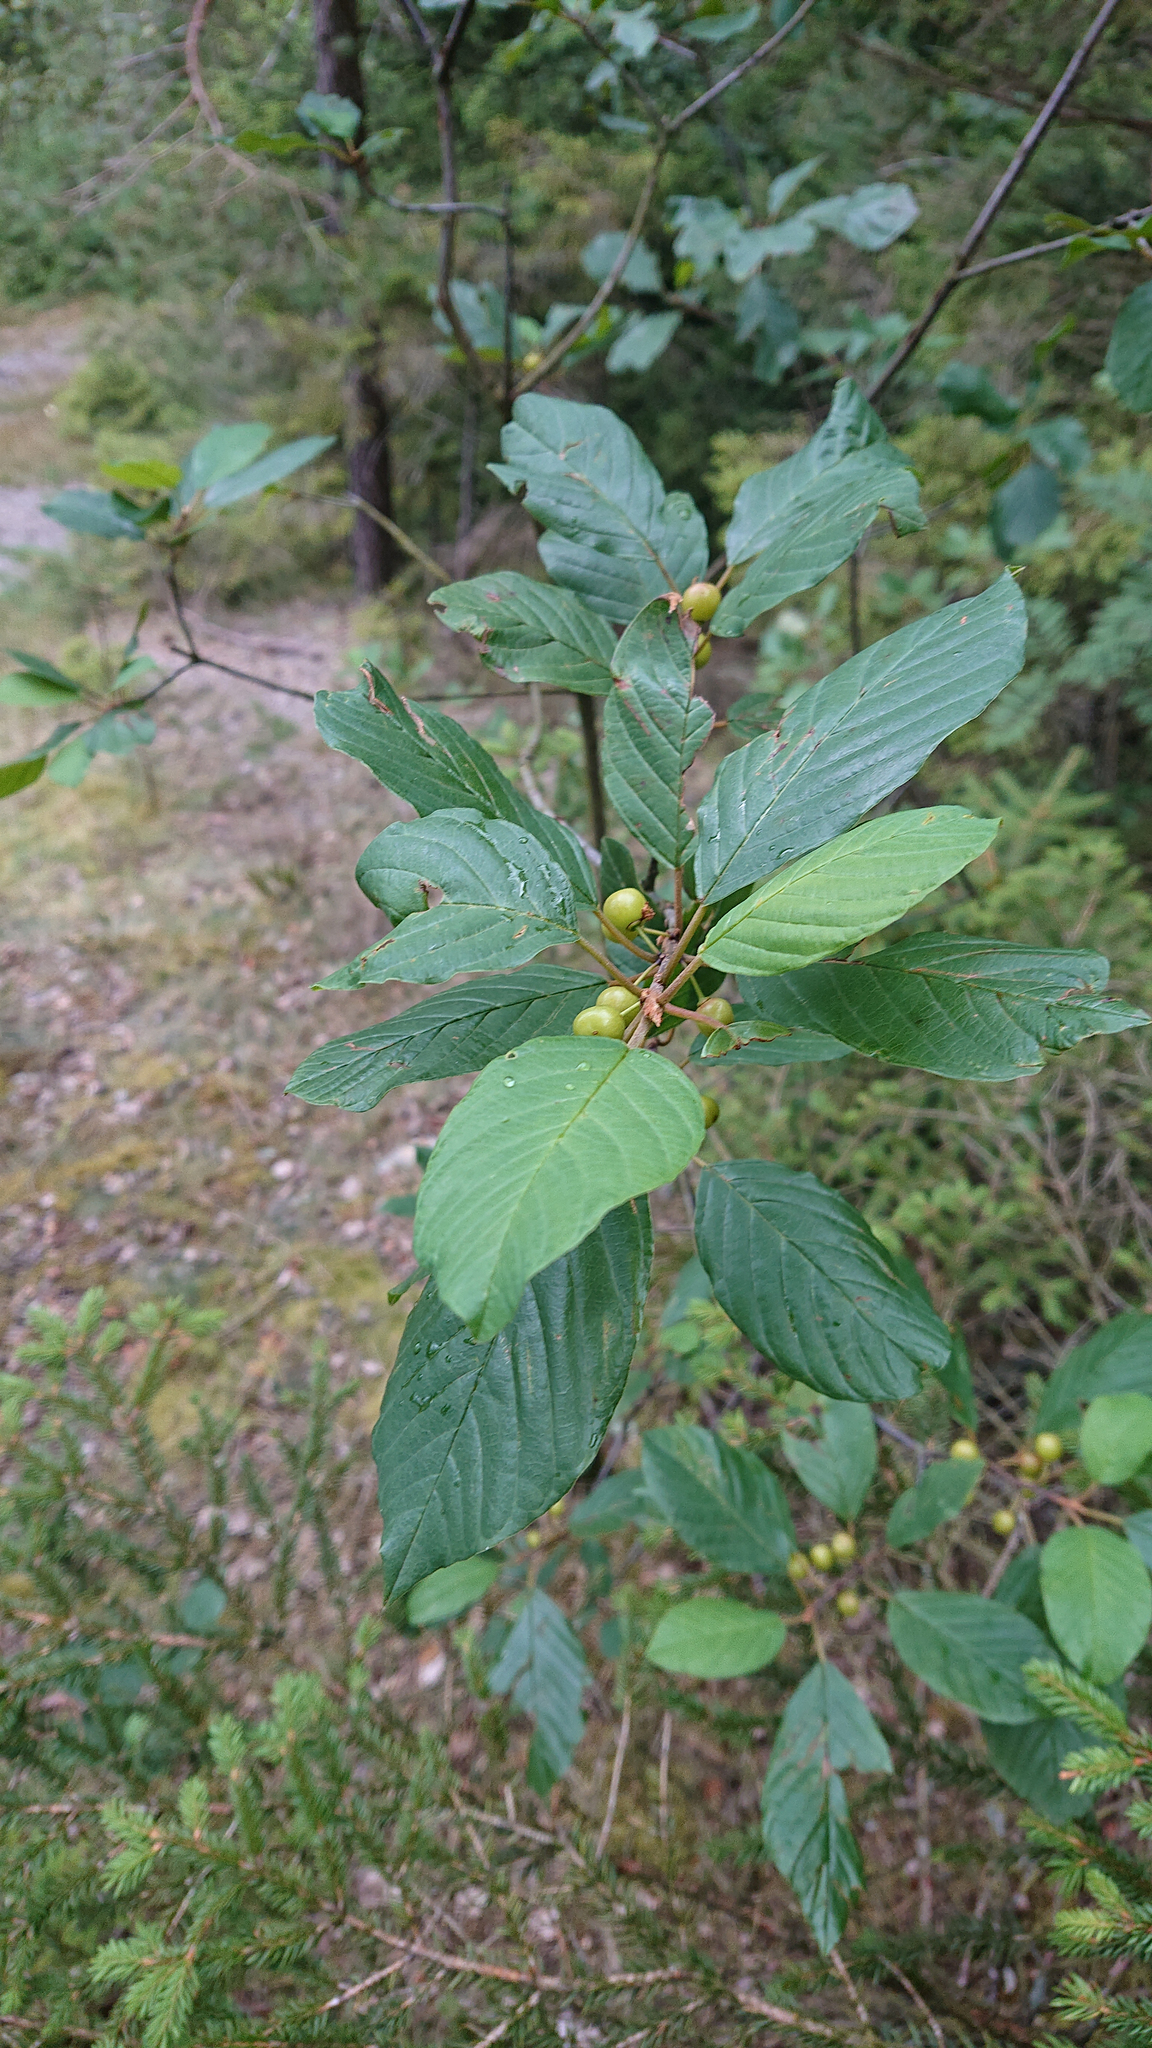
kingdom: Plantae
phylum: Tracheophyta
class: Magnoliopsida
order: Rosales
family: Rhamnaceae
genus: Frangula
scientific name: Frangula alnus
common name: Alder buckthorn
